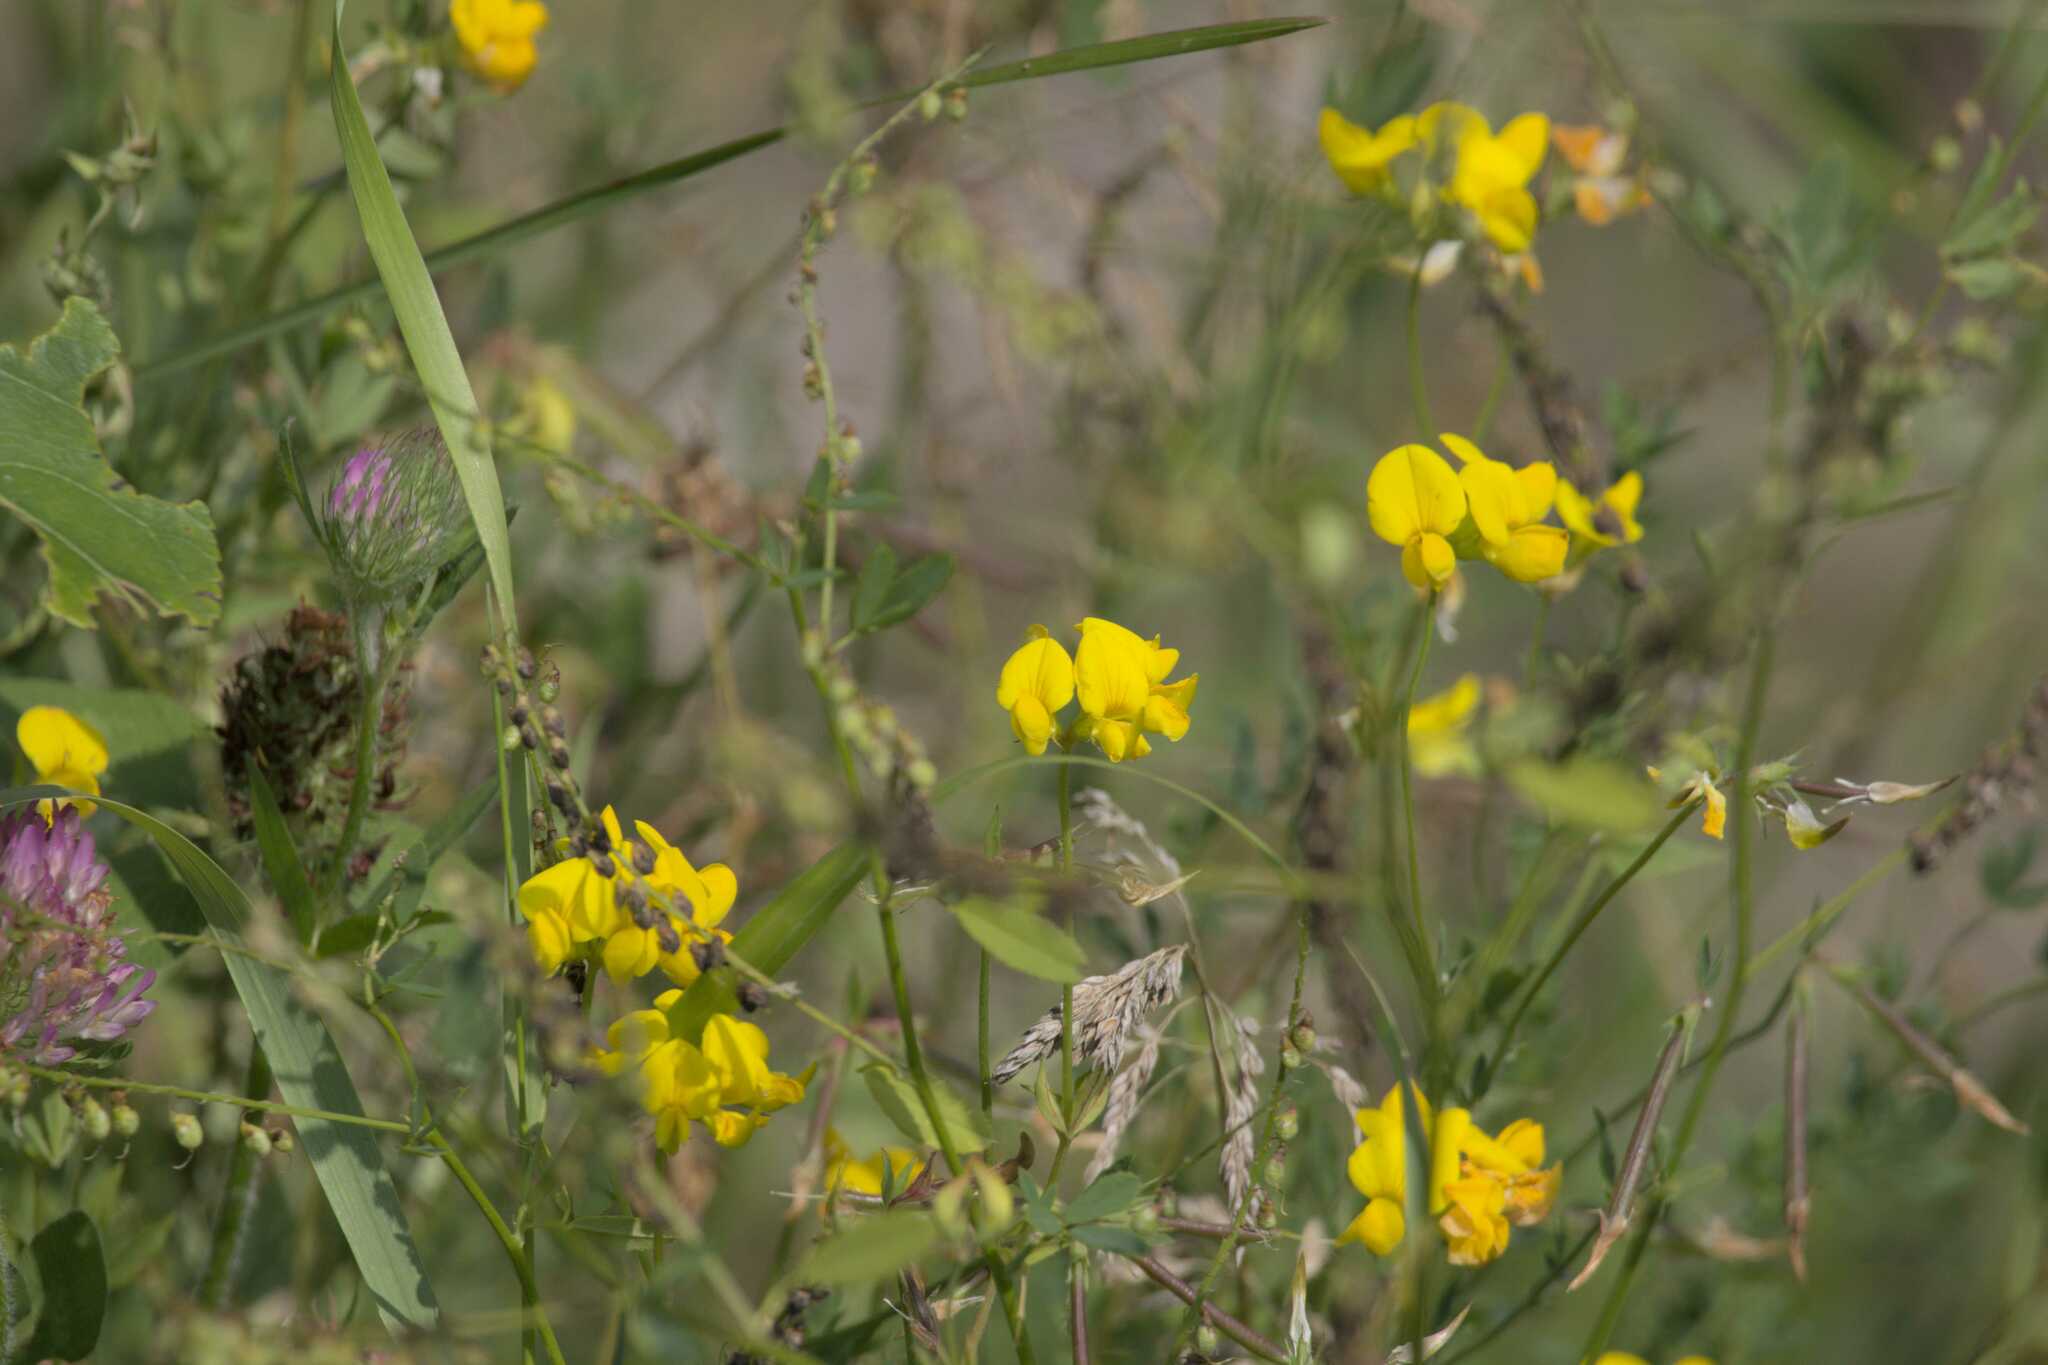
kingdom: Plantae
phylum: Tracheophyta
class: Magnoliopsida
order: Fabales
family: Fabaceae
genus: Lotus
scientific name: Lotus corniculatus
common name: Common bird's-foot-trefoil
